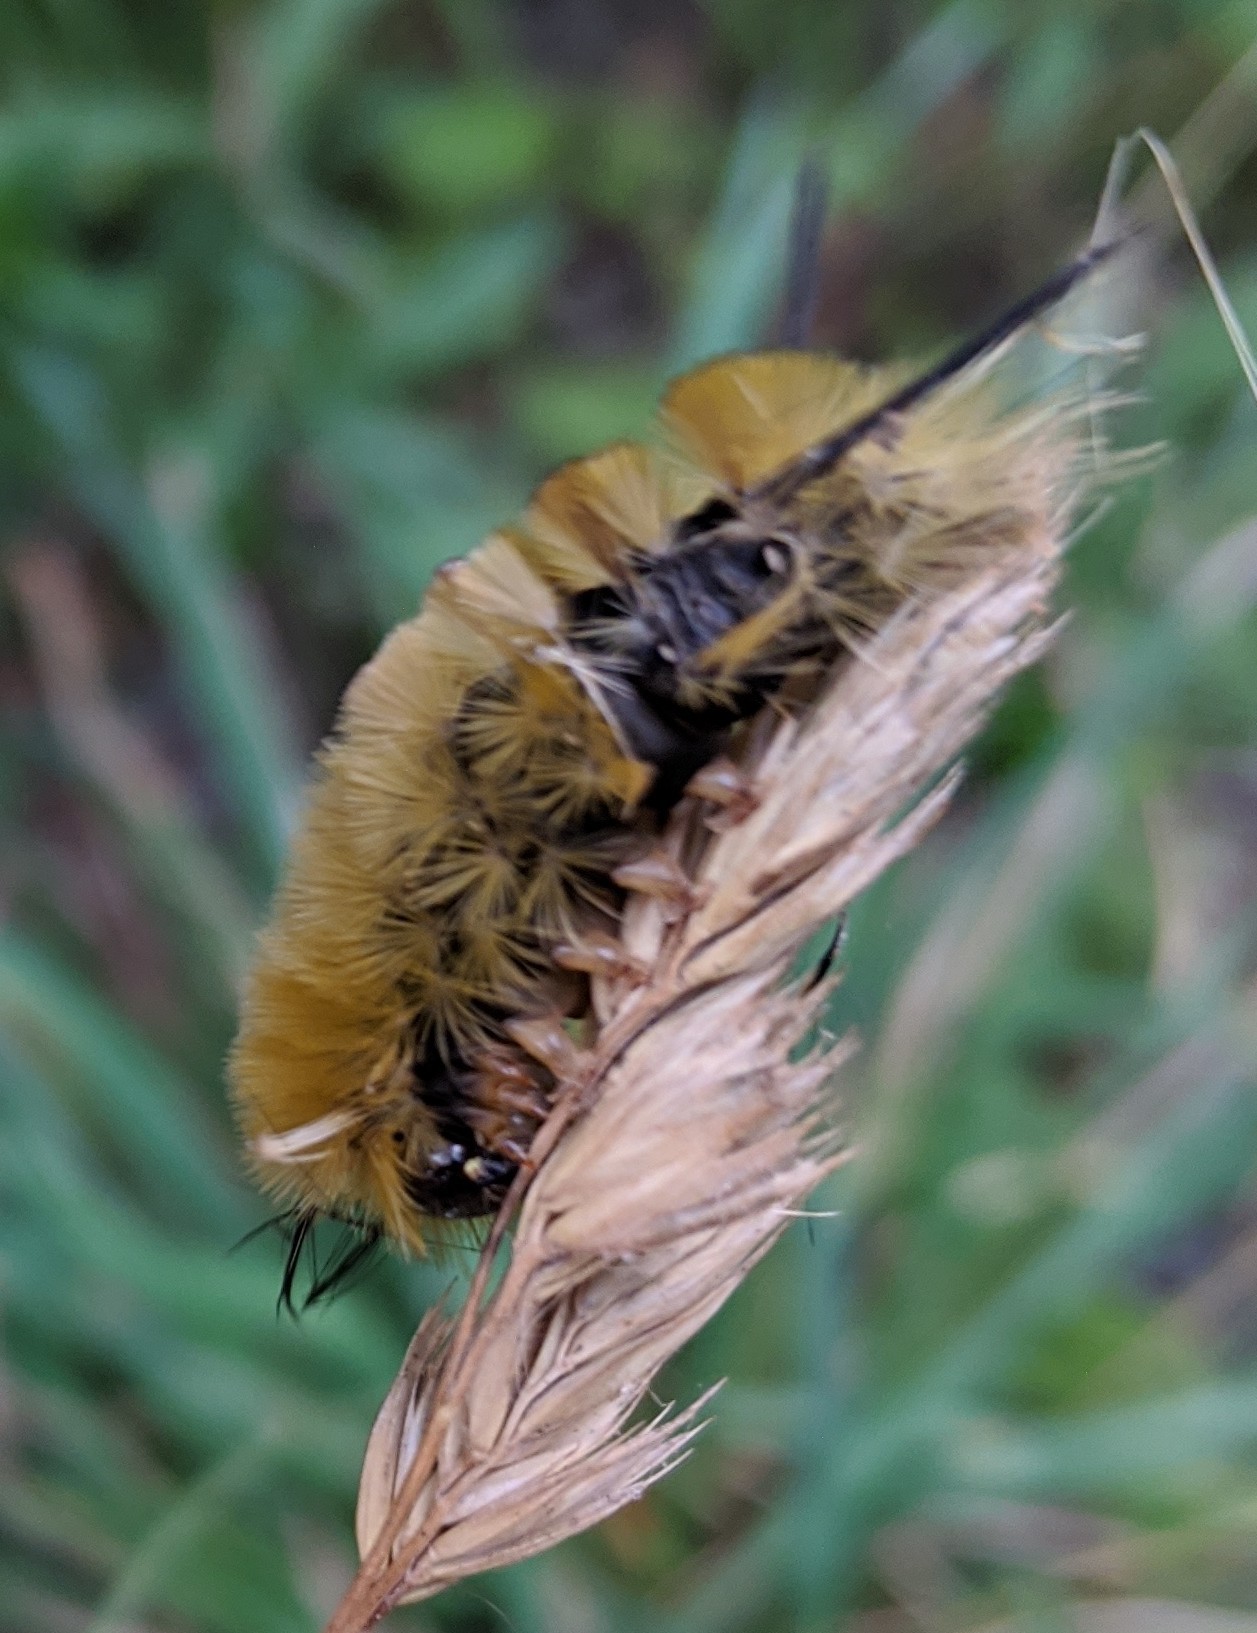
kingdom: Animalia
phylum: Arthropoda
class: Insecta
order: Lepidoptera
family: Erebidae
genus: Halysidota
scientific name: Halysidota tessellaris
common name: Banded tussock moth
